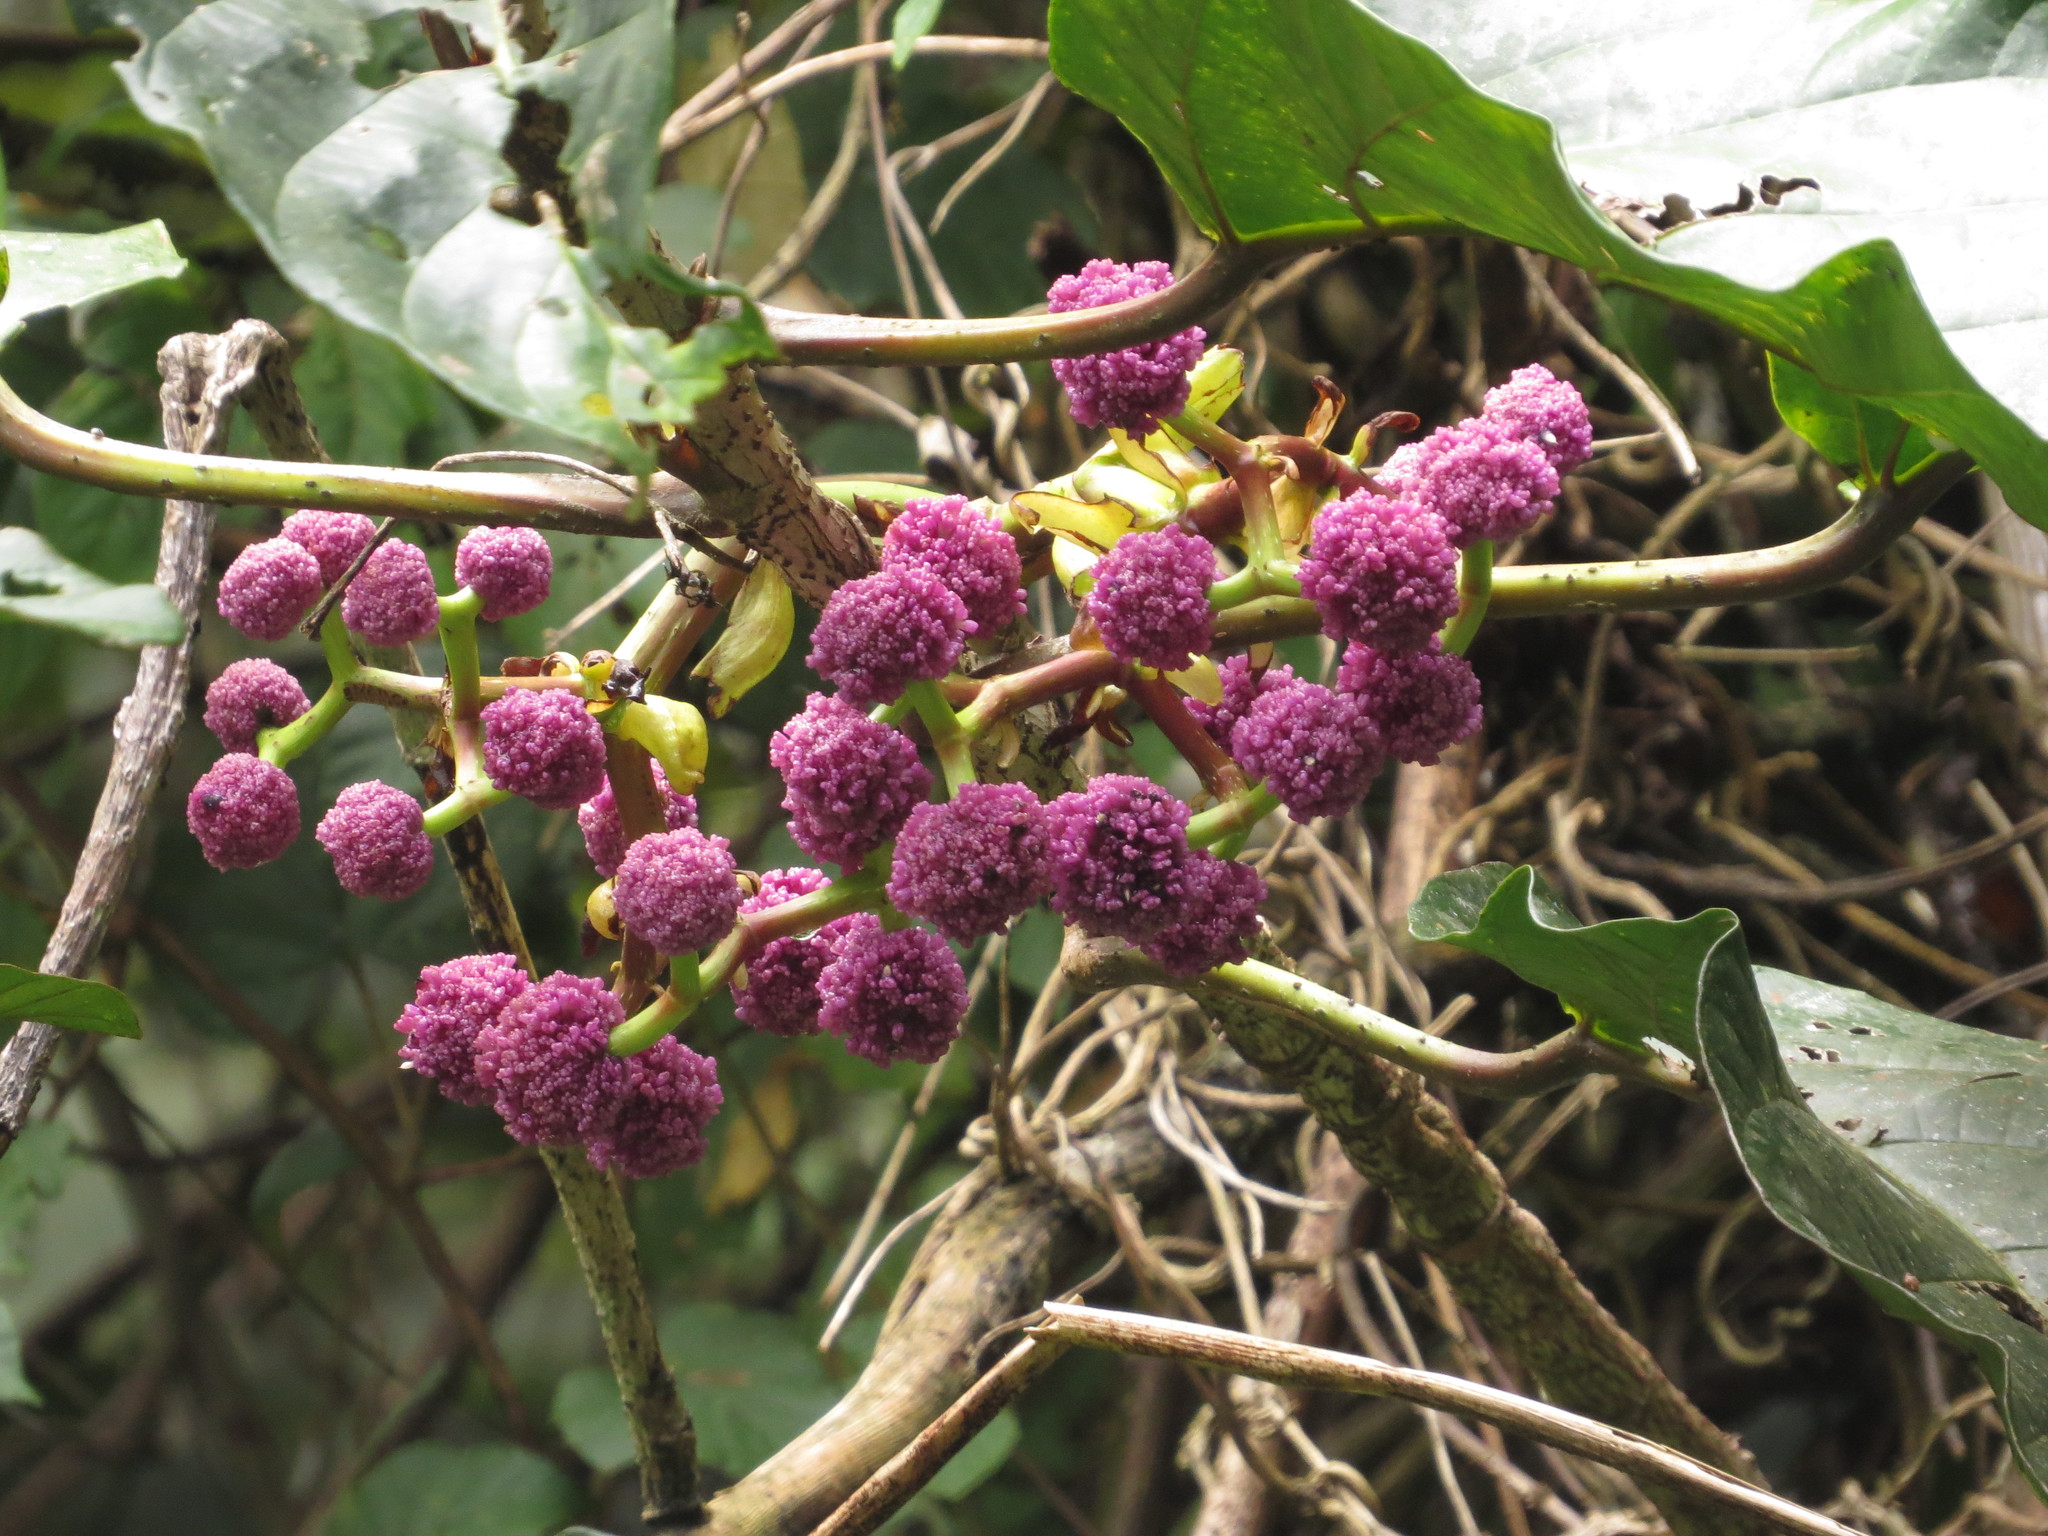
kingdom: Plantae
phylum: Tracheophyta
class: Magnoliopsida
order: Rosales
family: Urticaceae
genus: Poikilospermum
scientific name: Poikilospermum suaveolens
